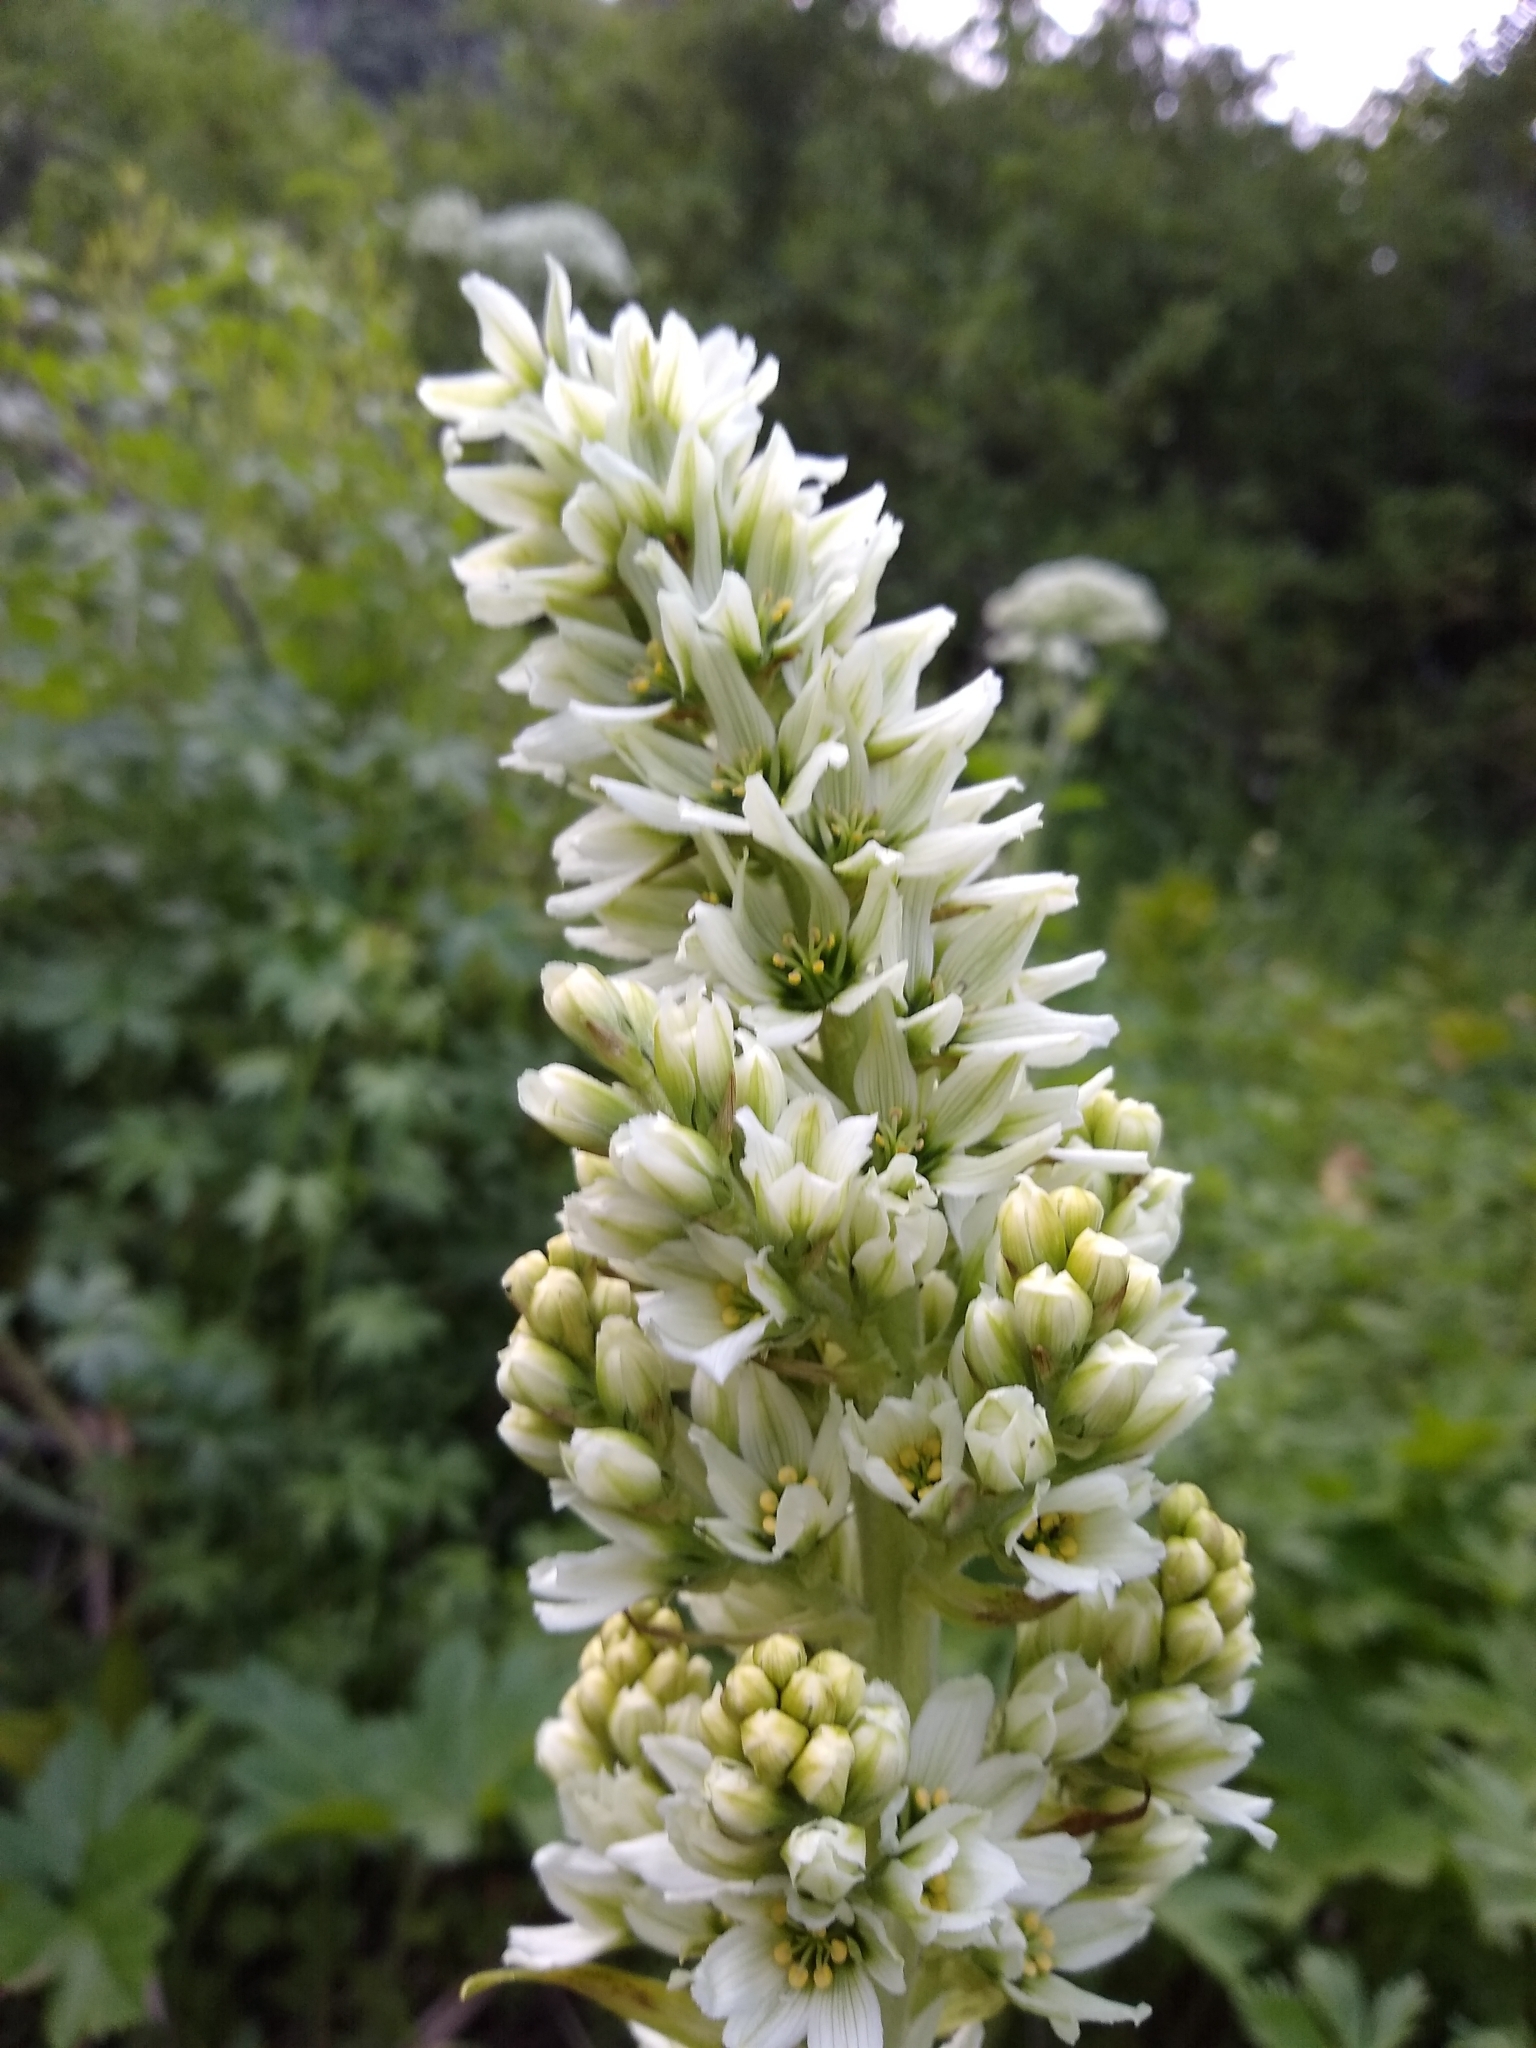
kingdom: Plantae
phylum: Tracheophyta
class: Liliopsida
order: Liliales
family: Melanthiaceae
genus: Veratrum
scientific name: Veratrum californicum
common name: California veratrum
